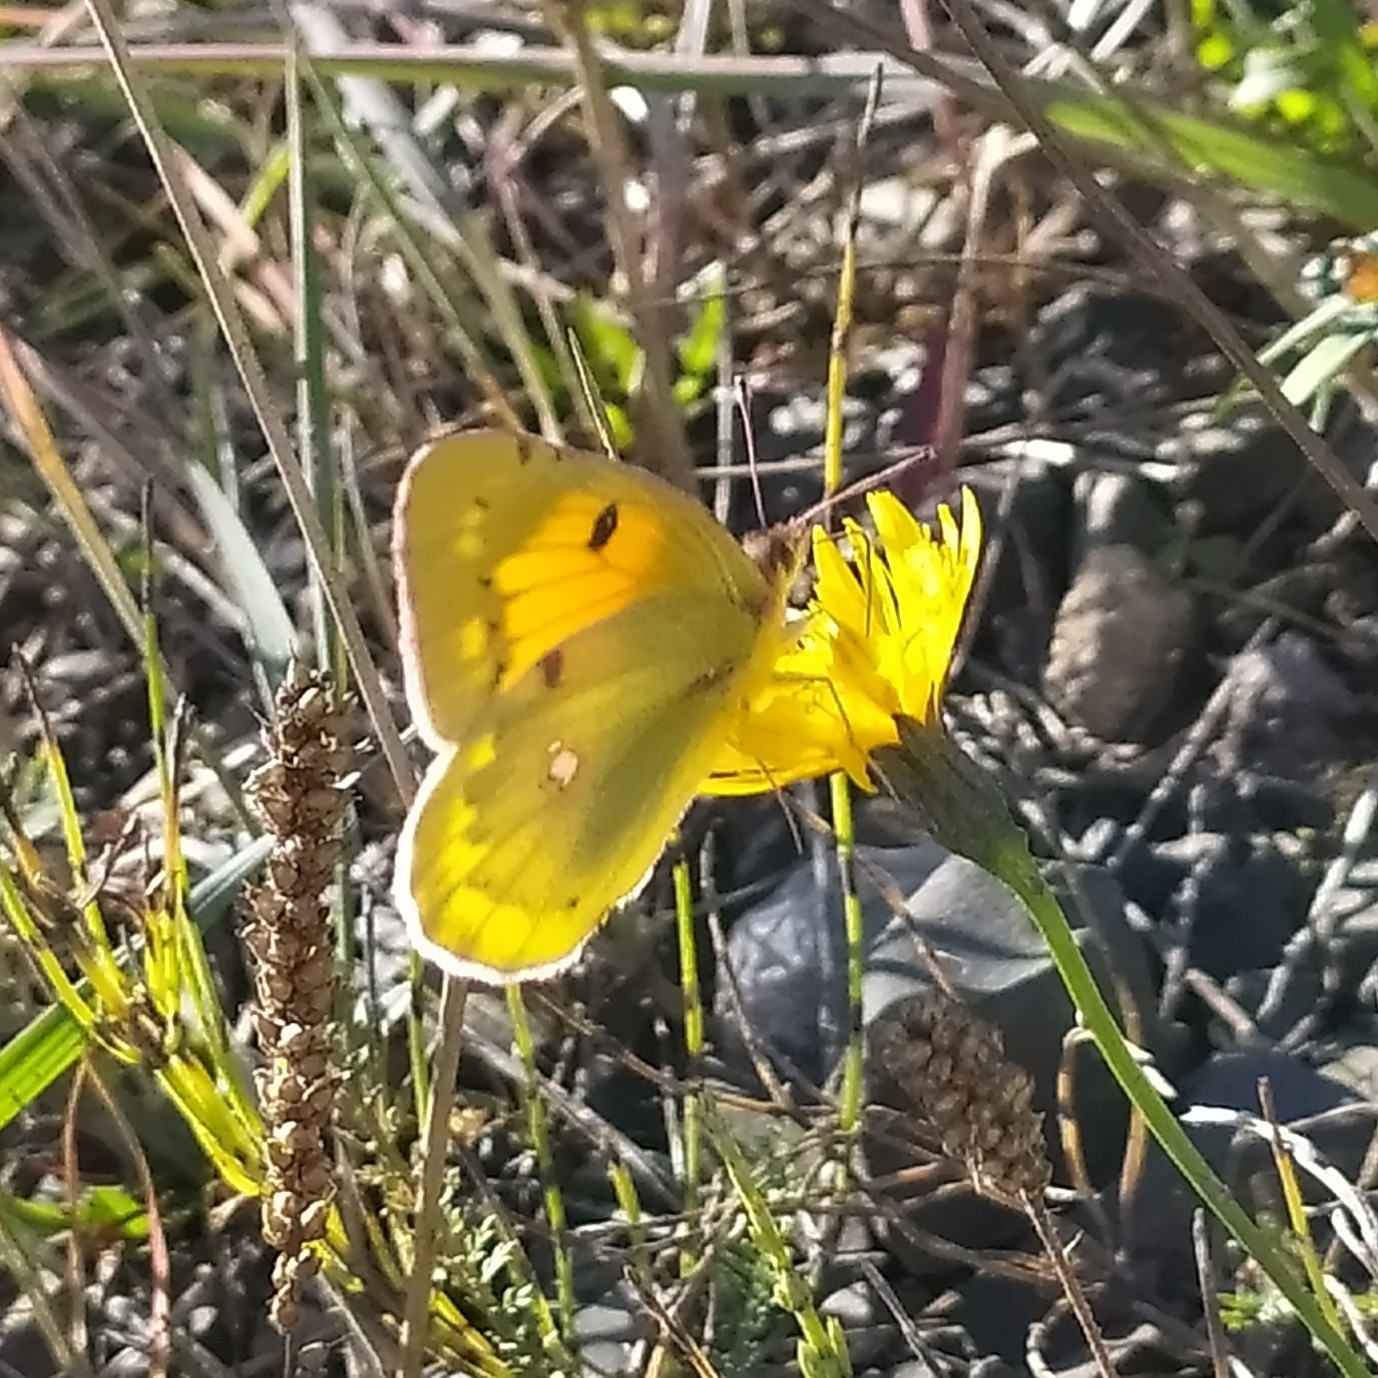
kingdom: Animalia
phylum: Arthropoda
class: Insecta
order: Lepidoptera
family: Pieridae
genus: Colias
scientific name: Colias myrmidone
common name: Danube clouded yellow
